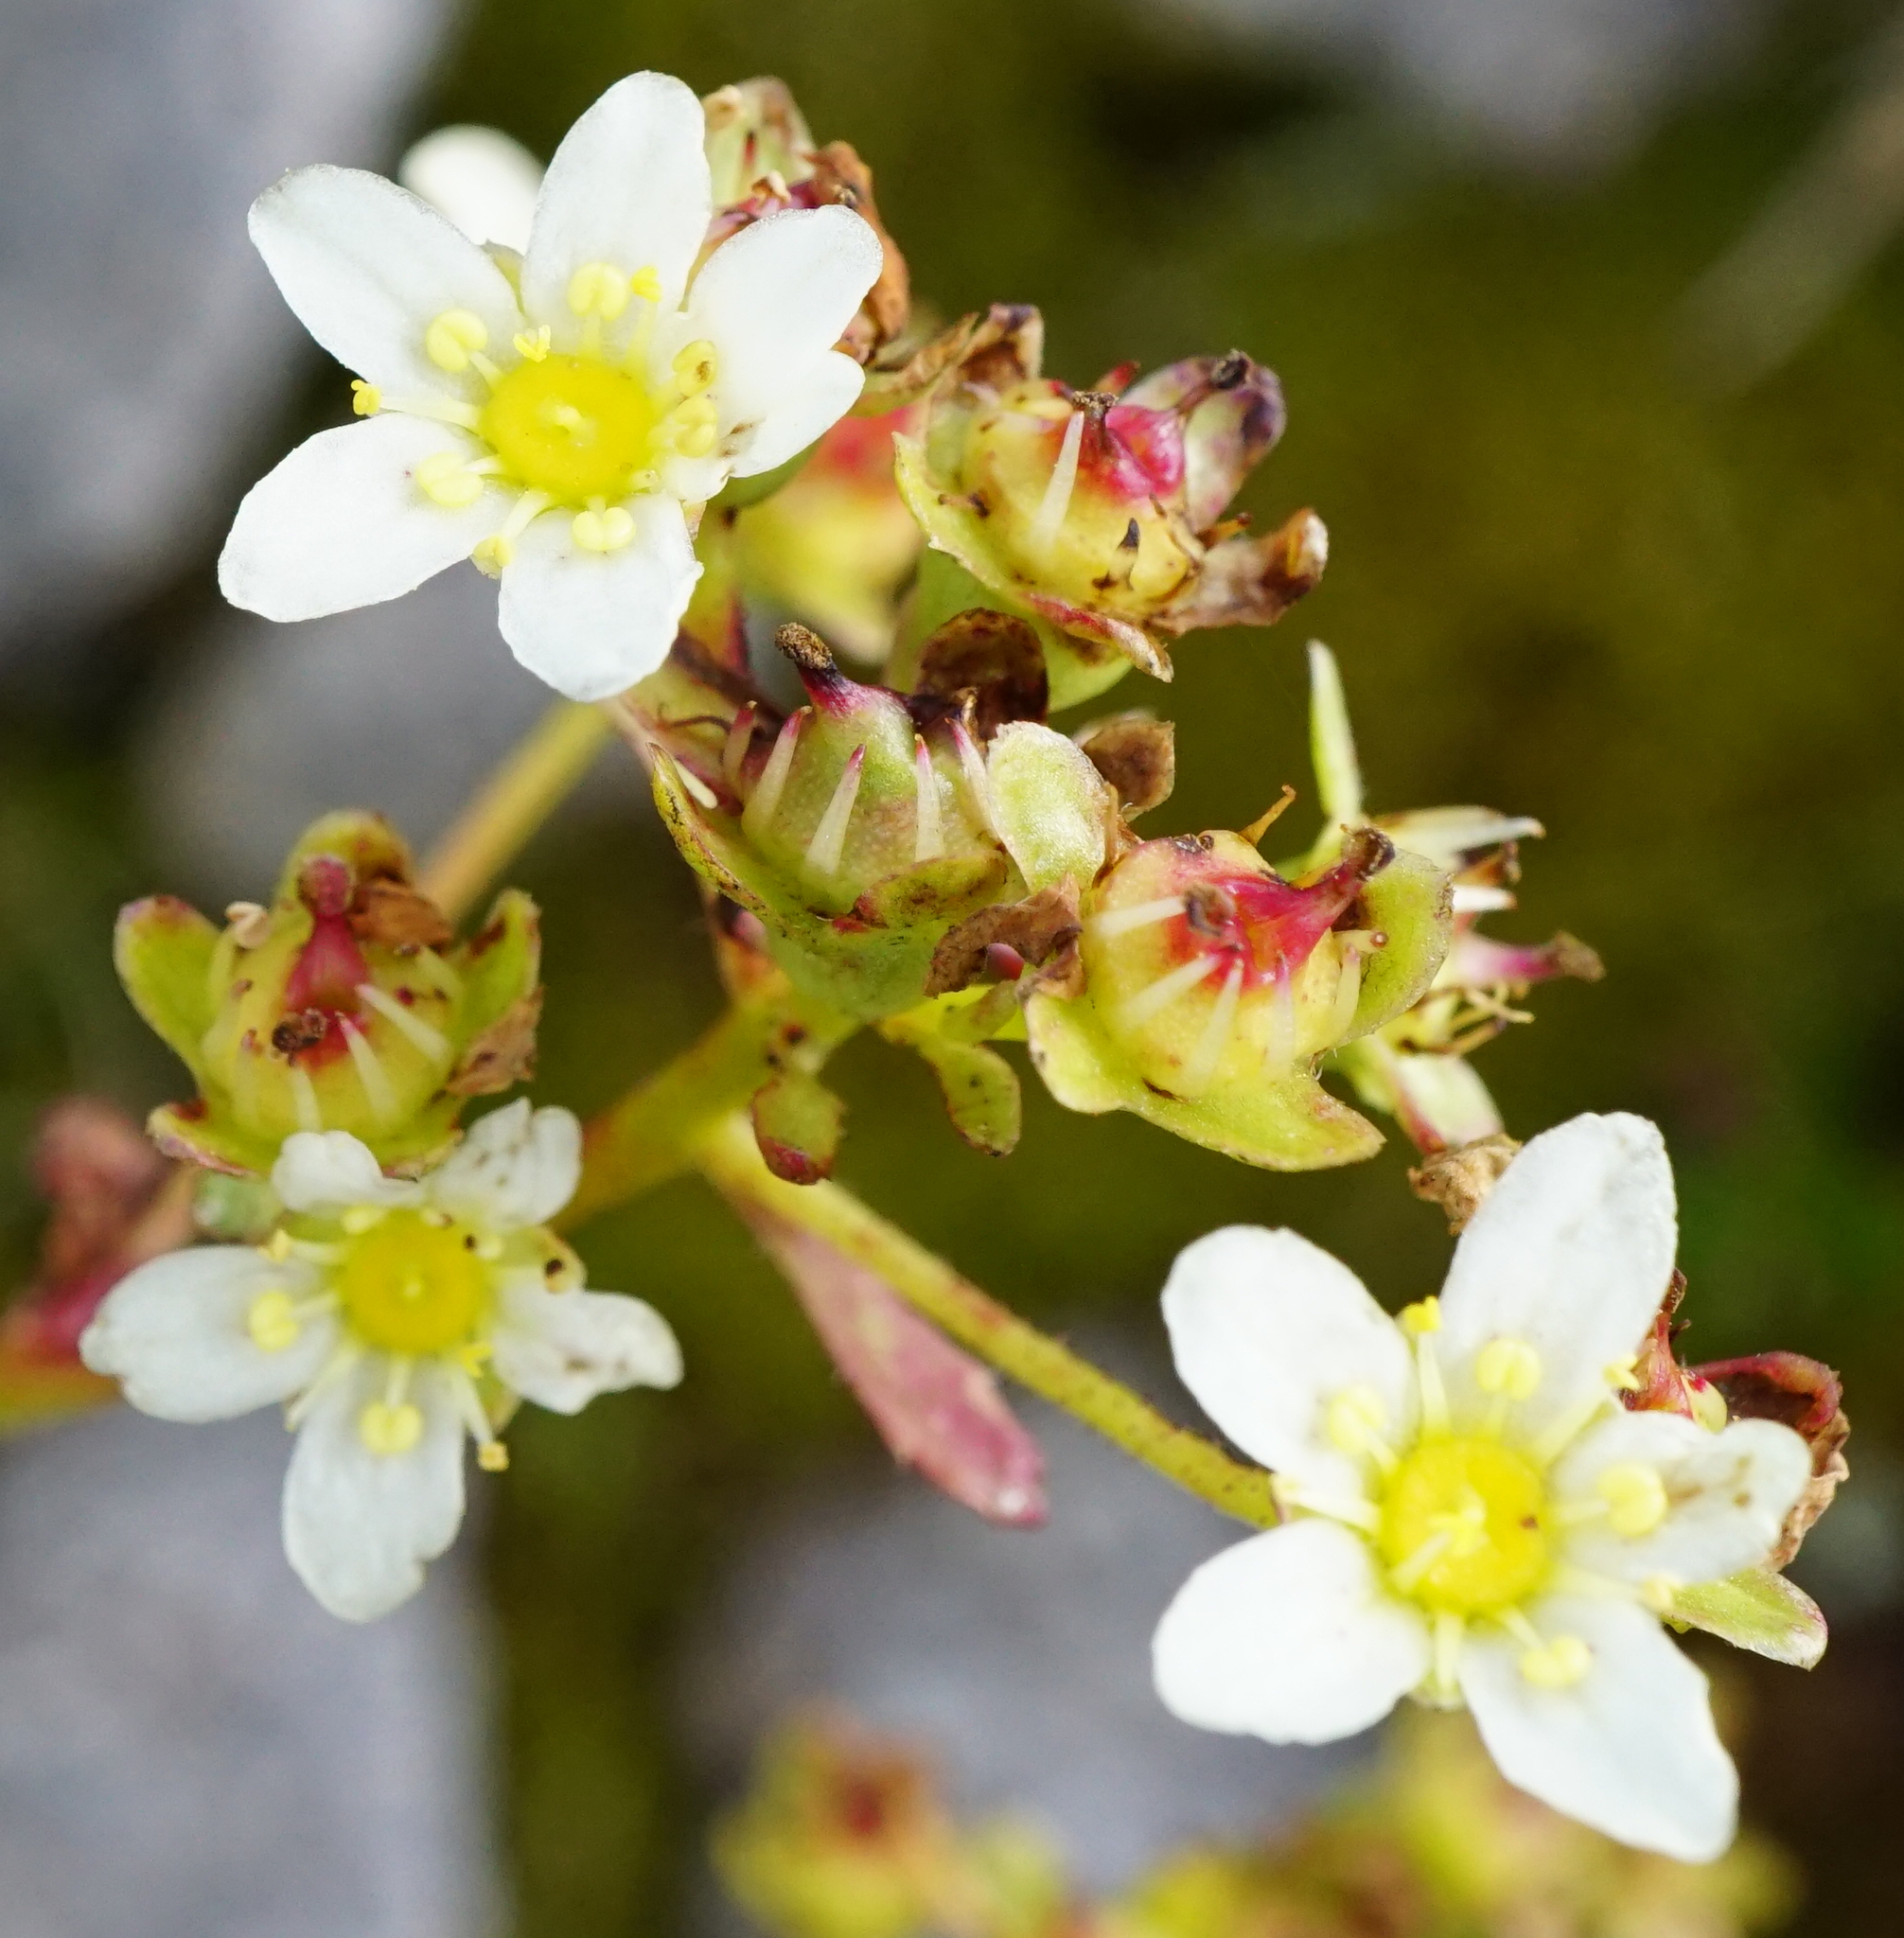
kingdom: Plantae
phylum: Tracheophyta
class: Magnoliopsida
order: Saxifragales
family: Saxifragaceae
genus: Saxifraga
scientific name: Saxifraga paniculata
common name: Livelong saxifrage
